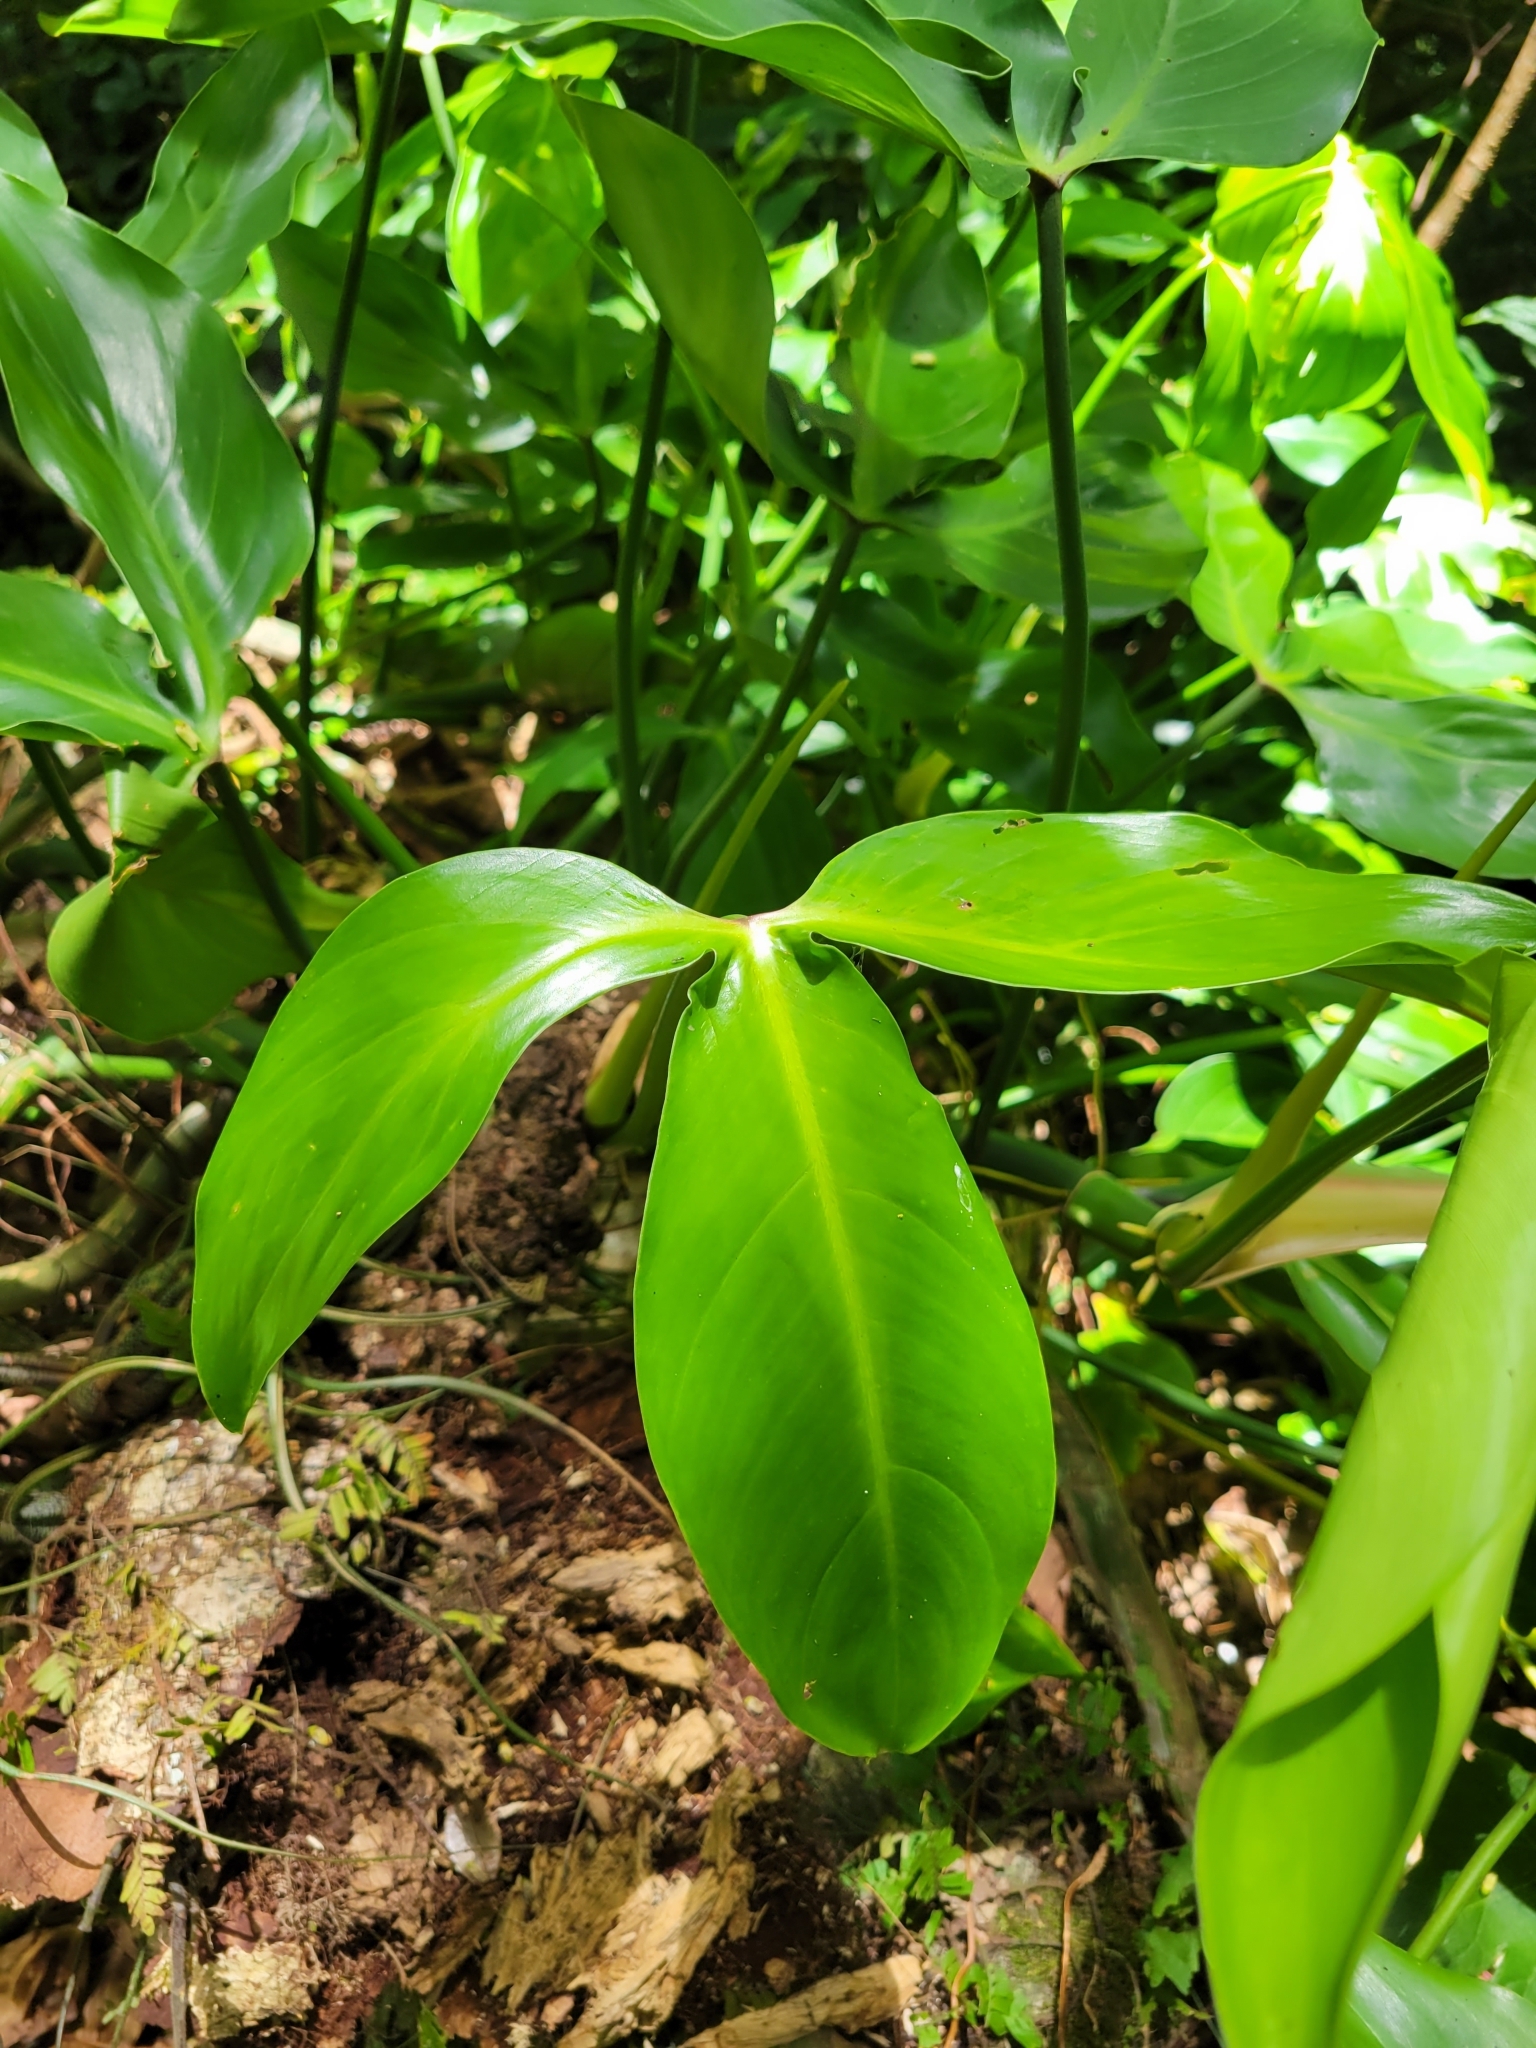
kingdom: Plantae
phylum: Tracheophyta
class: Liliopsida
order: Alismatales
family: Araceae
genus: Philodendron
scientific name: Philodendron anisotomum
